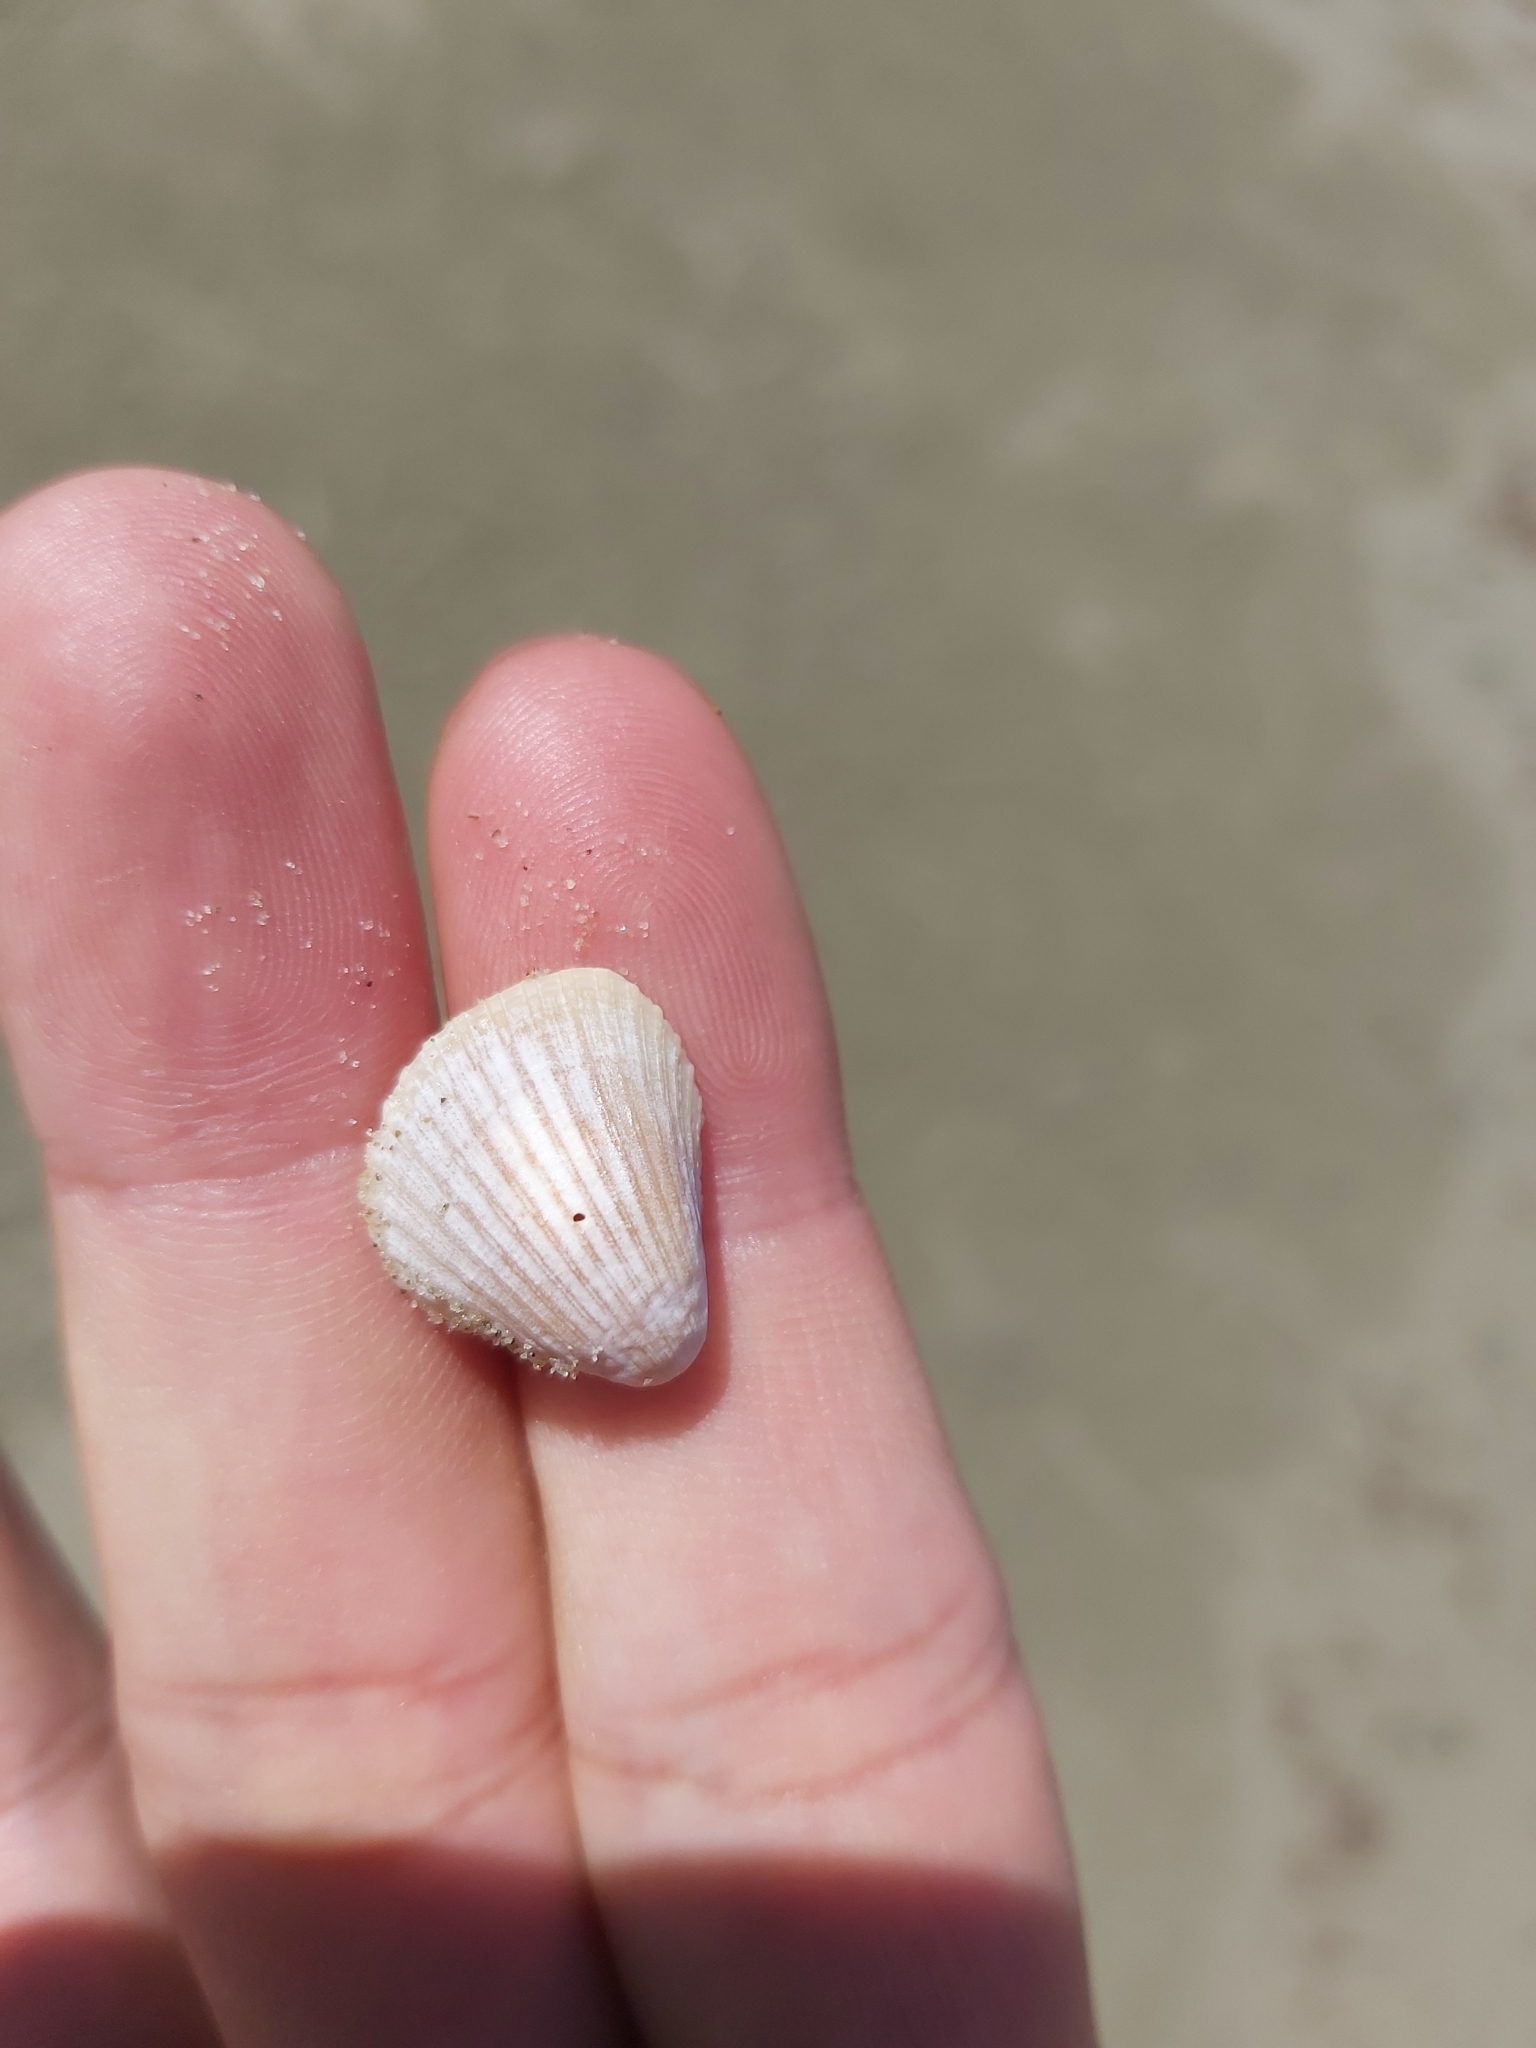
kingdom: Animalia
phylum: Mollusca
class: Bivalvia
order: Arcida
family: Arcidae
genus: Anadara
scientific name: Anadara pilula
